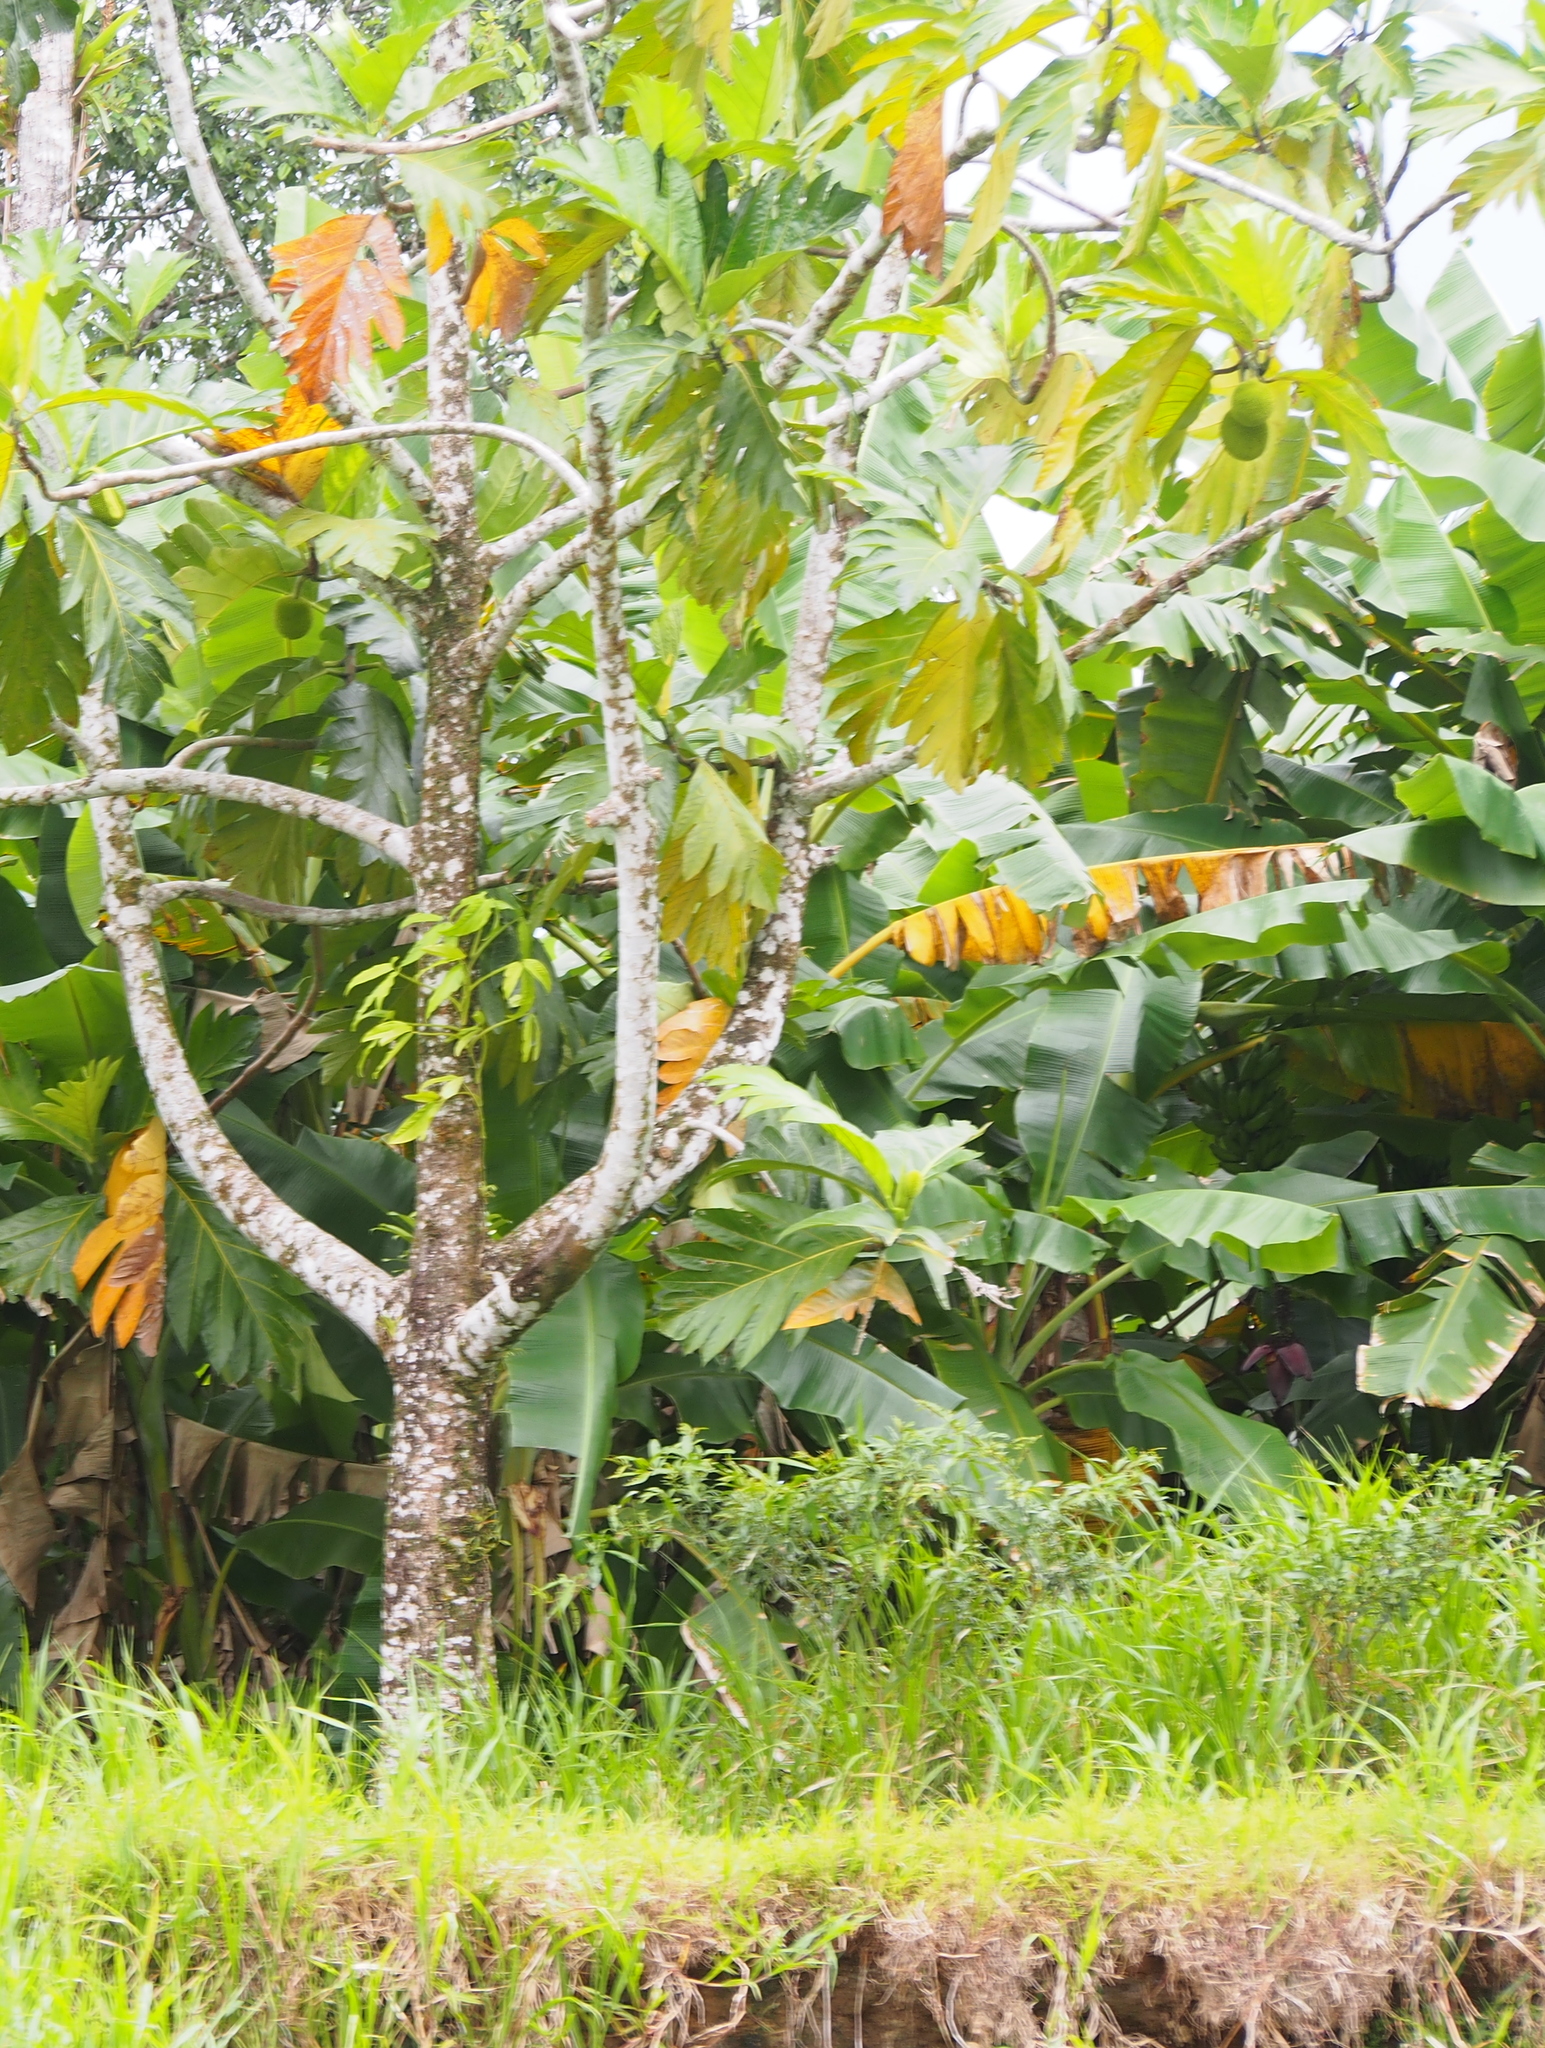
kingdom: Plantae
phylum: Tracheophyta
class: Magnoliopsida
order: Rosales
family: Moraceae
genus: Artocarpus
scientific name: Artocarpus altilis
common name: Breadfruit
